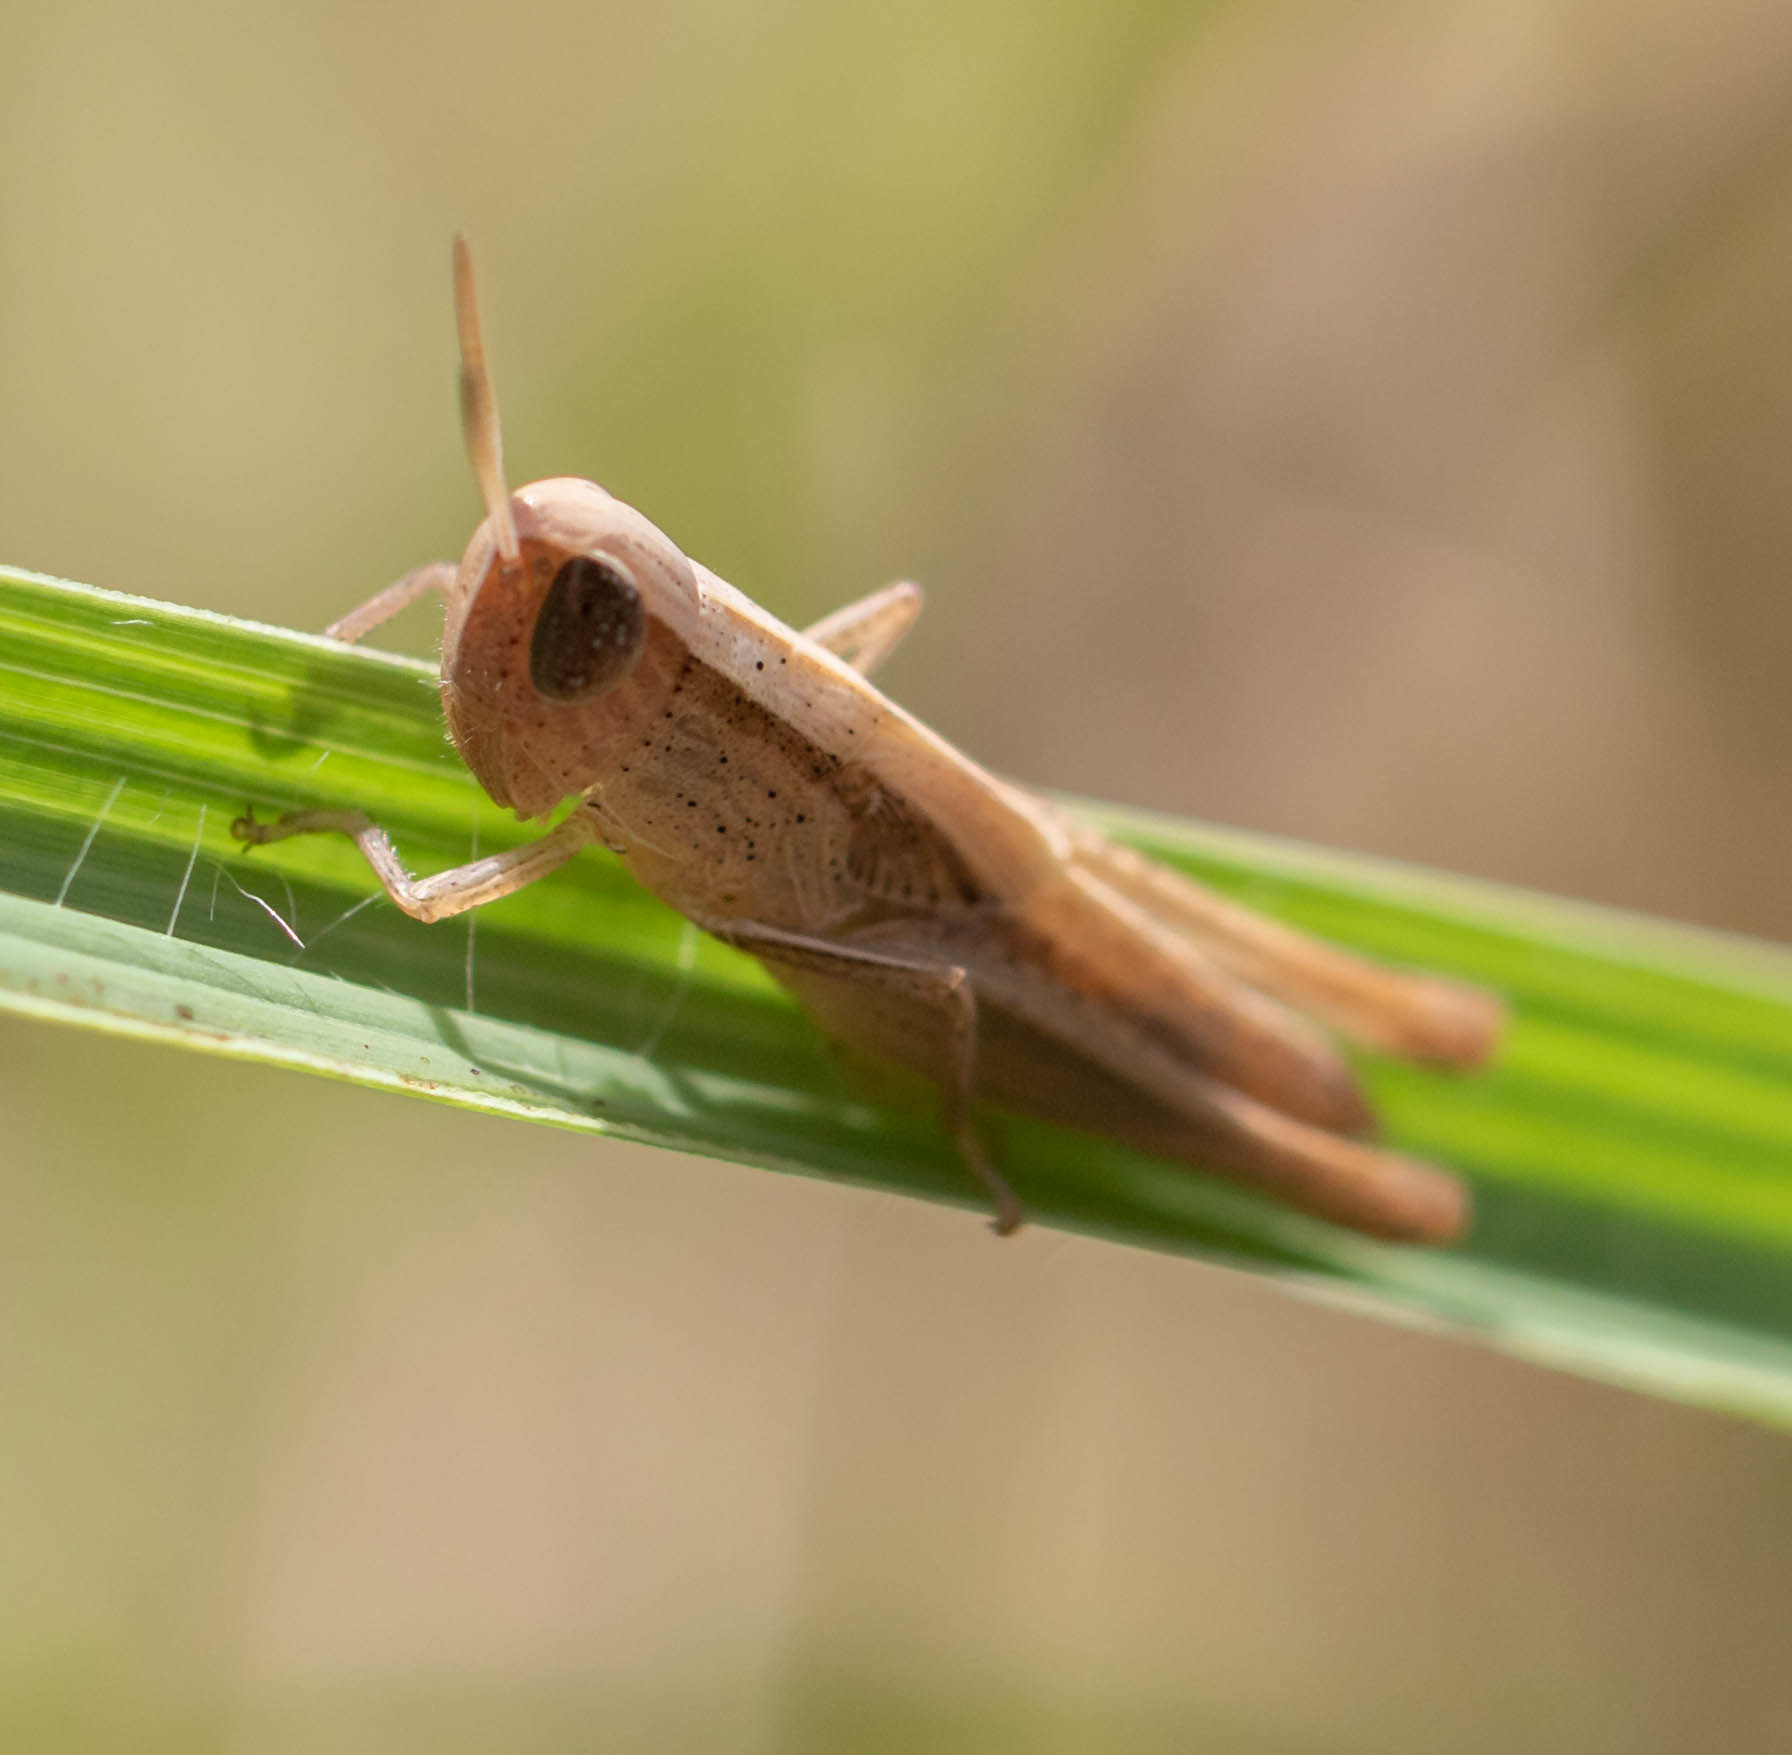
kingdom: Animalia
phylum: Arthropoda
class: Insecta
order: Orthoptera
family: Acrididae
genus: Amblytropidia
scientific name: Amblytropidia mysteca
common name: Brown winter grasshopper
